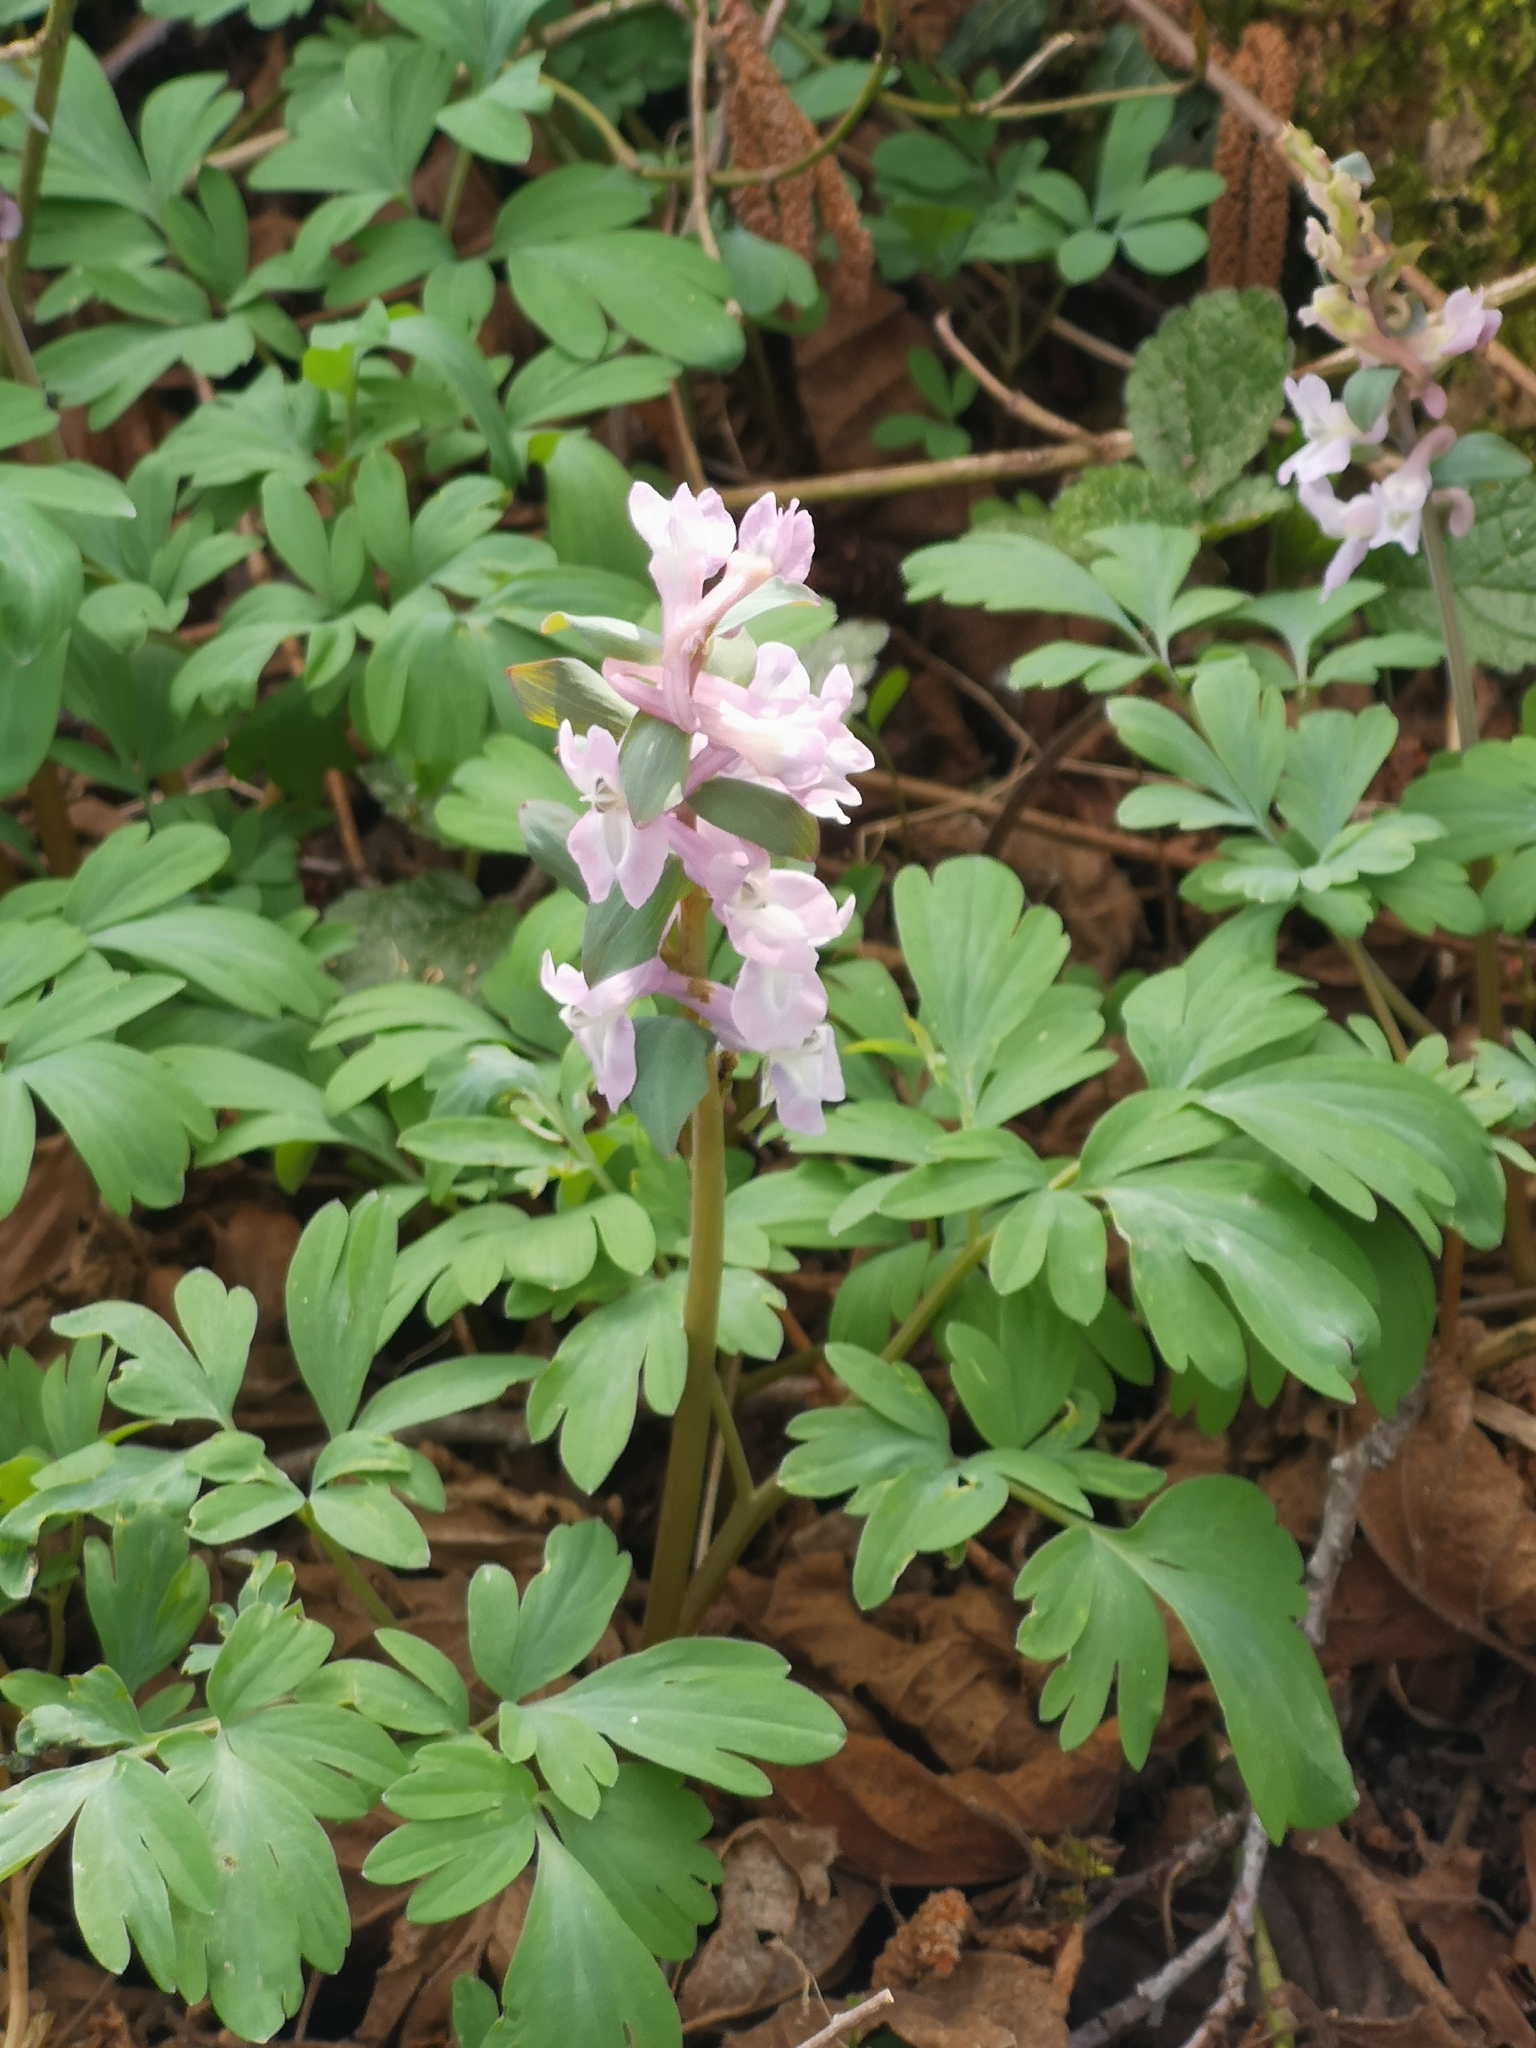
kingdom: Plantae
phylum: Tracheophyta
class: Magnoliopsida
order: Ranunculales
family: Papaveraceae
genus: Corydalis
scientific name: Corydalis cava
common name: Hollowroot
